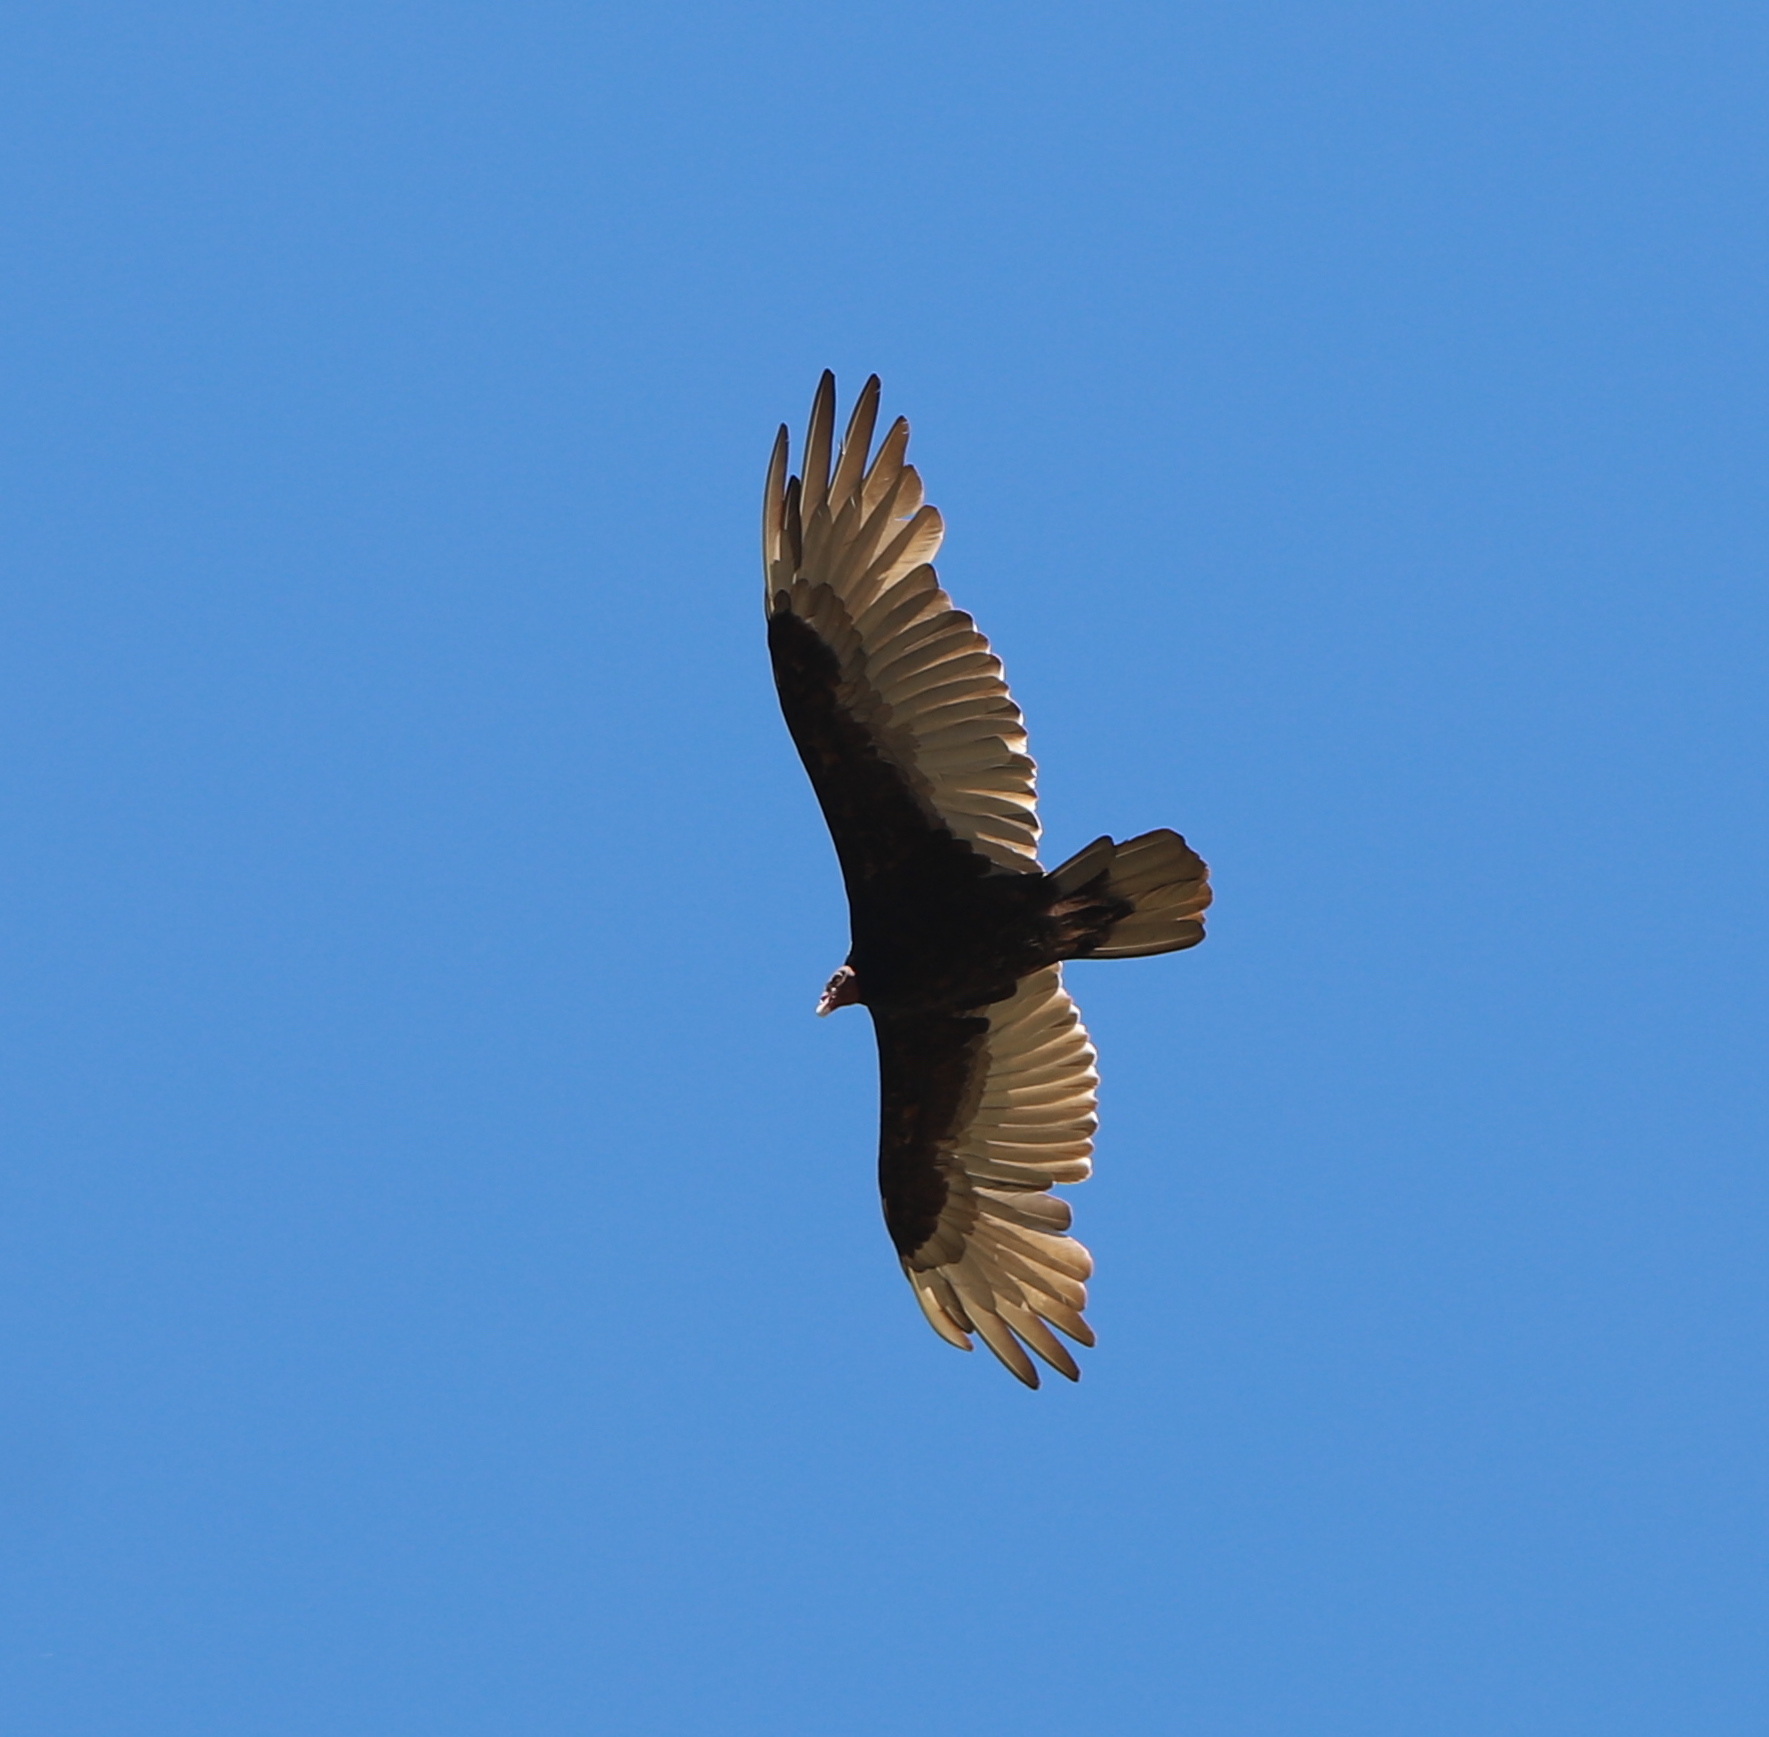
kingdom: Animalia
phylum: Chordata
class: Aves
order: Accipitriformes
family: Cathartidae
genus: Cathartes
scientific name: Cathartes aura
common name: Turkey vulture
